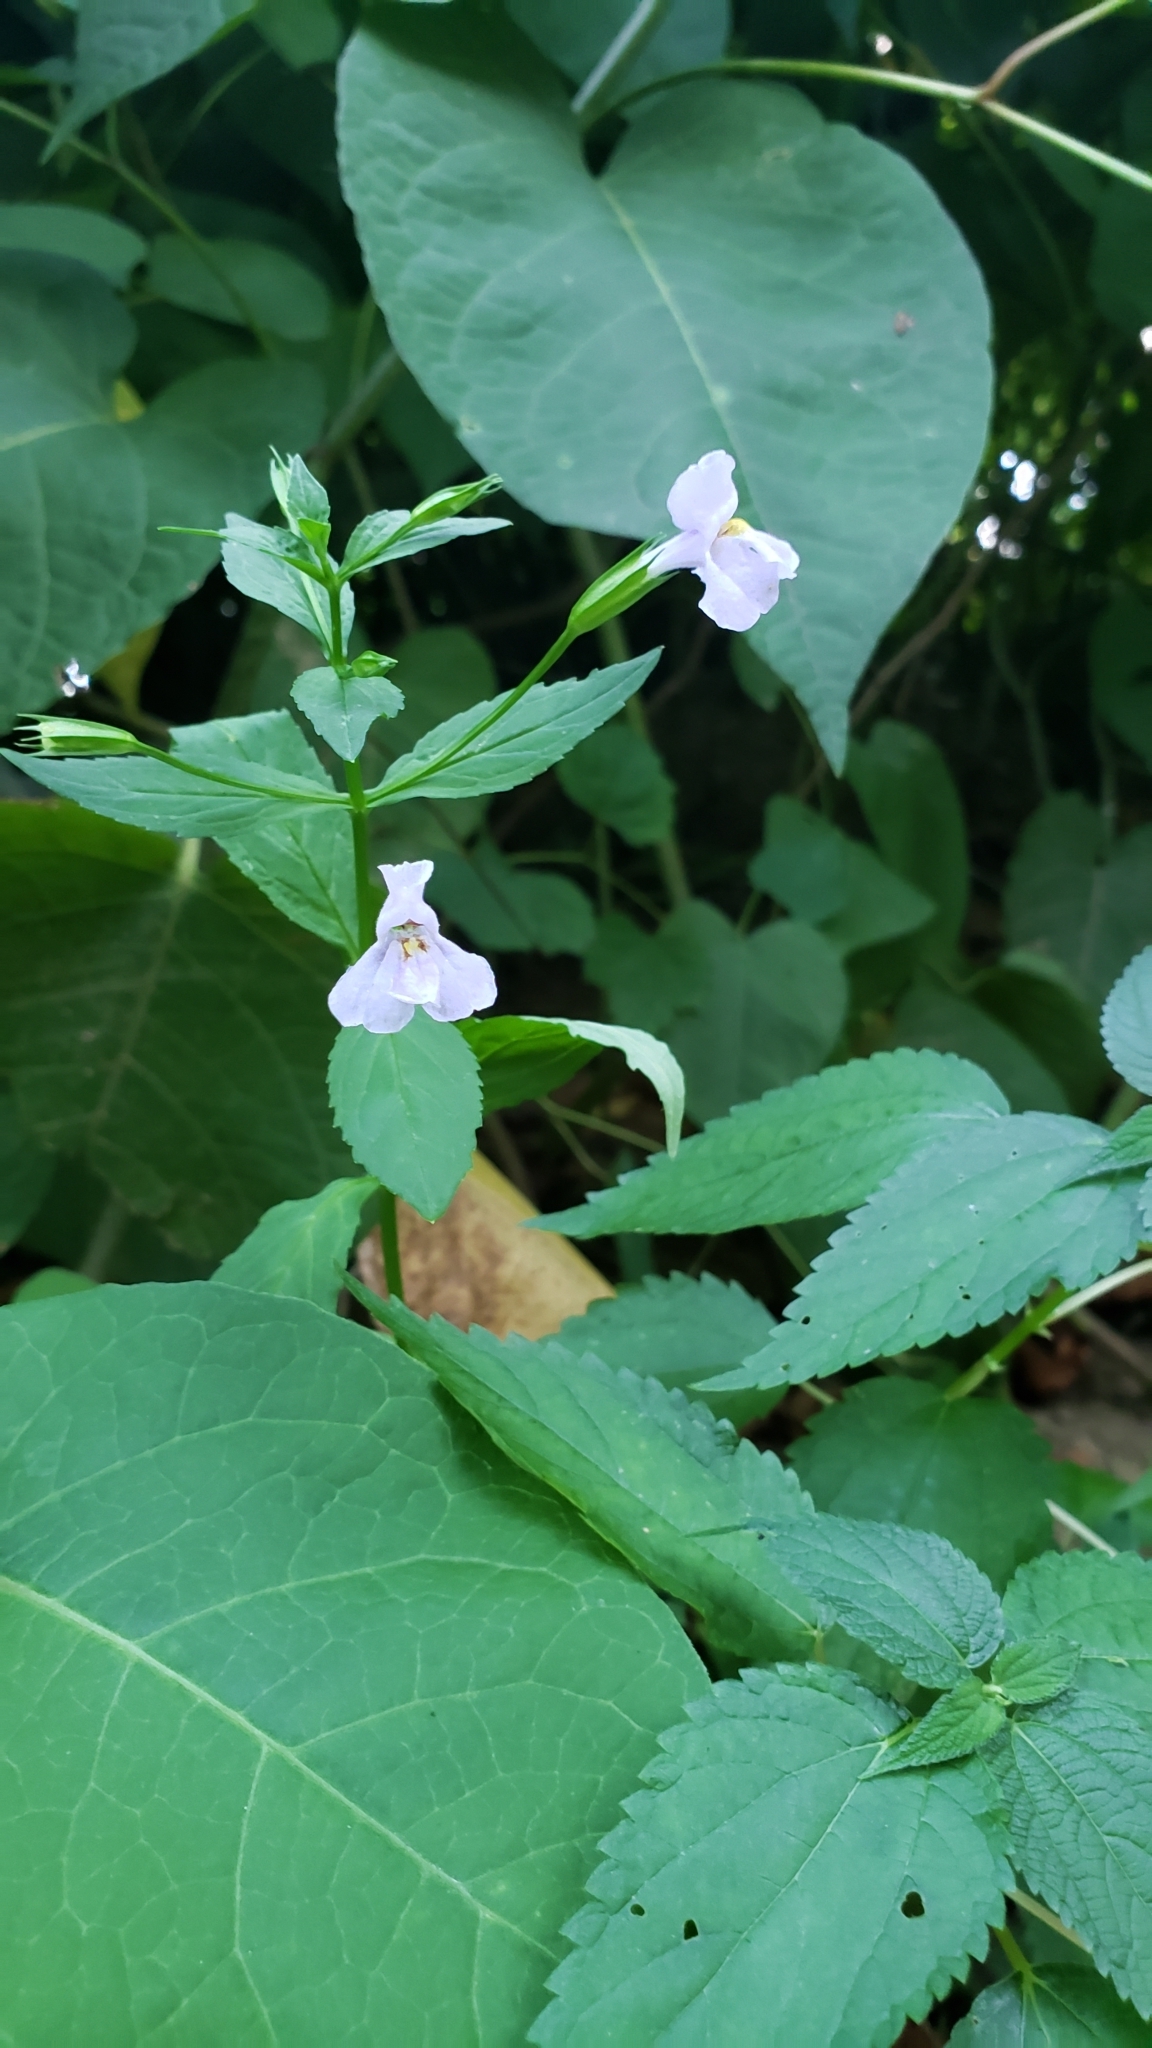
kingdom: Plantae
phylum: Tracheophyta
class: Magnoliopsida
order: Lamiales
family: Phrymaceae
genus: Mimulus
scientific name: Mimulus ringens
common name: Allegheny monkeyflower
